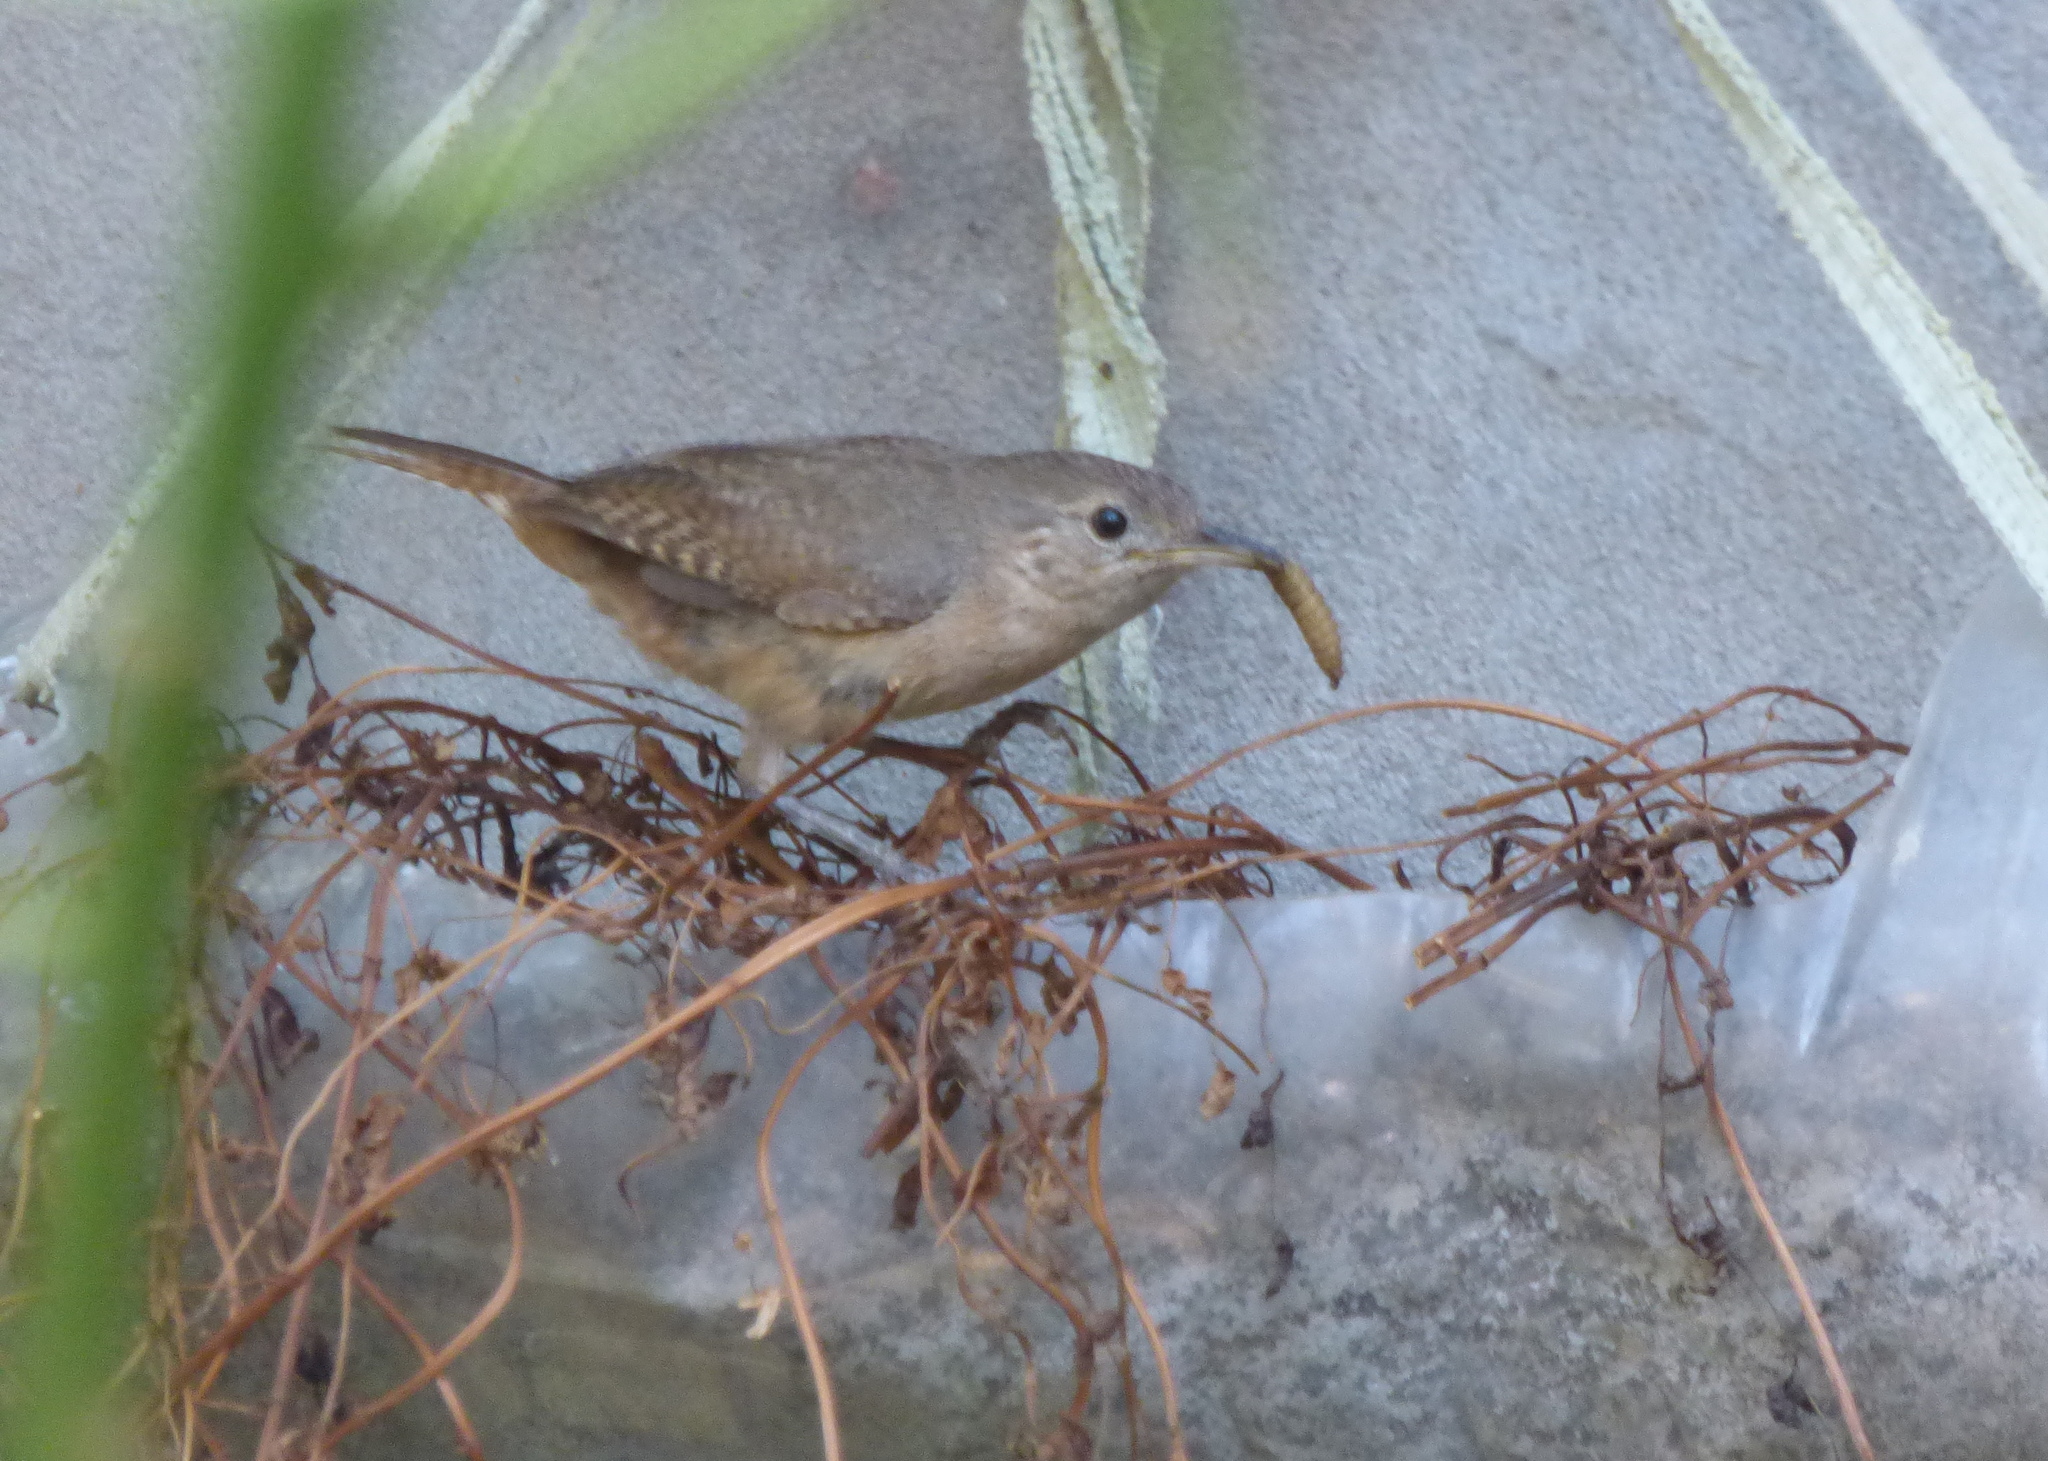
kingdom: Animalia
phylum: Chordata
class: Aves
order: Passeriformes
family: Troglodytidae
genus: Troglodytes
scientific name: Troglodytes aedon
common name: House wren
